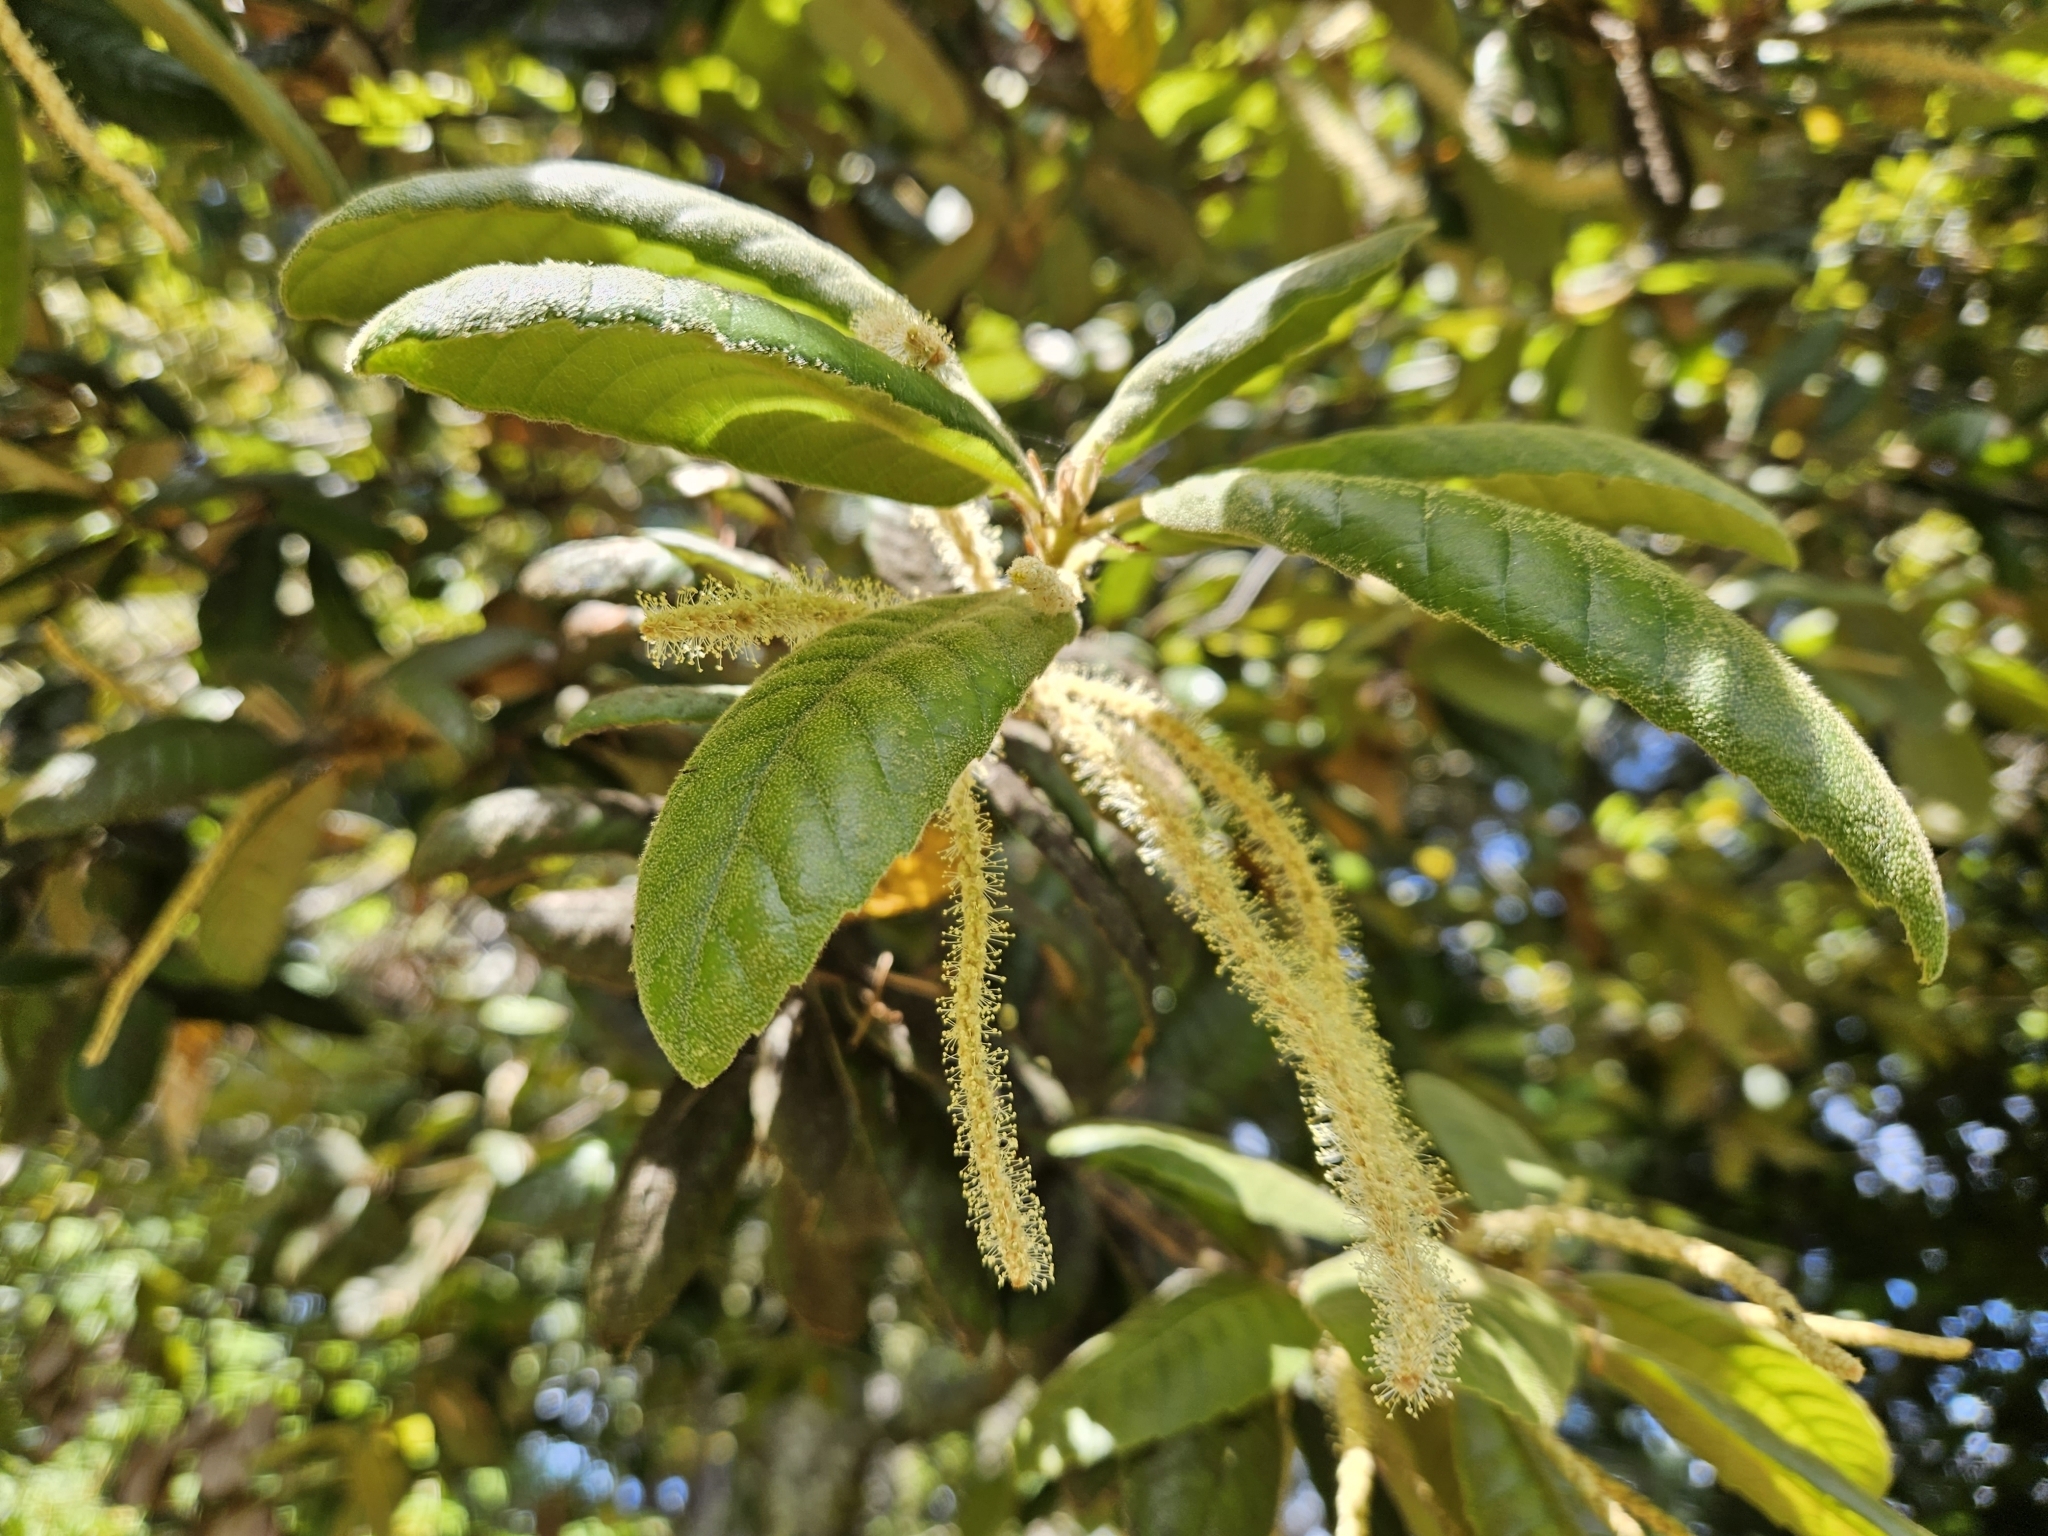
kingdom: Plantae
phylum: Tracheophyta
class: Magnoliopsida
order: Fagales
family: Fagaceae
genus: Notholithocarpus
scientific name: Notholithocarpus densiflorus
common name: Tan bark oak
